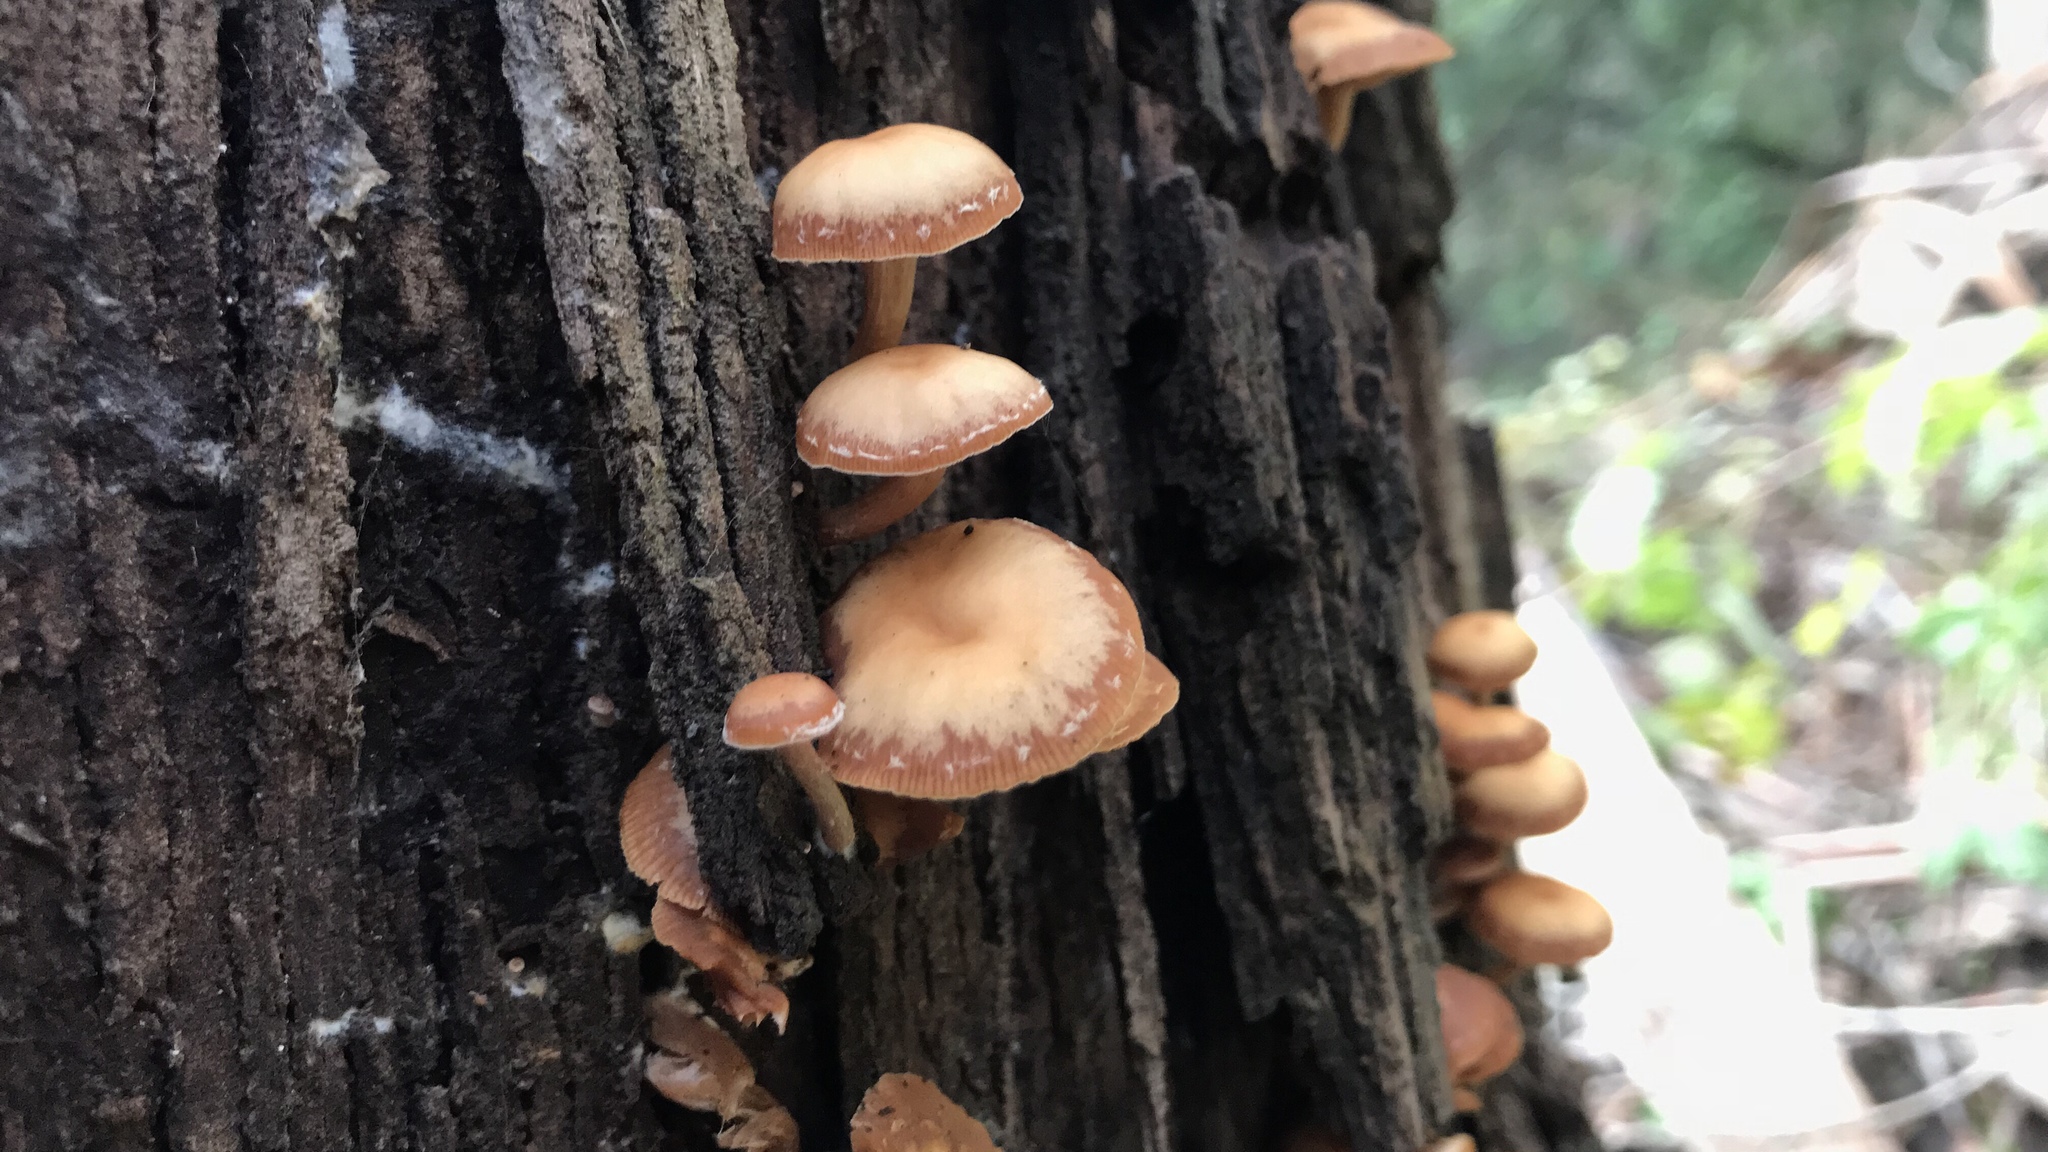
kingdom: Fungi
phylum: Basidiomycota
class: Agaricomycetes
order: Agaricales
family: Tubariaceae
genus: Tubaria
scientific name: Tubaria furfuracea
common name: Scurfy twiglet
